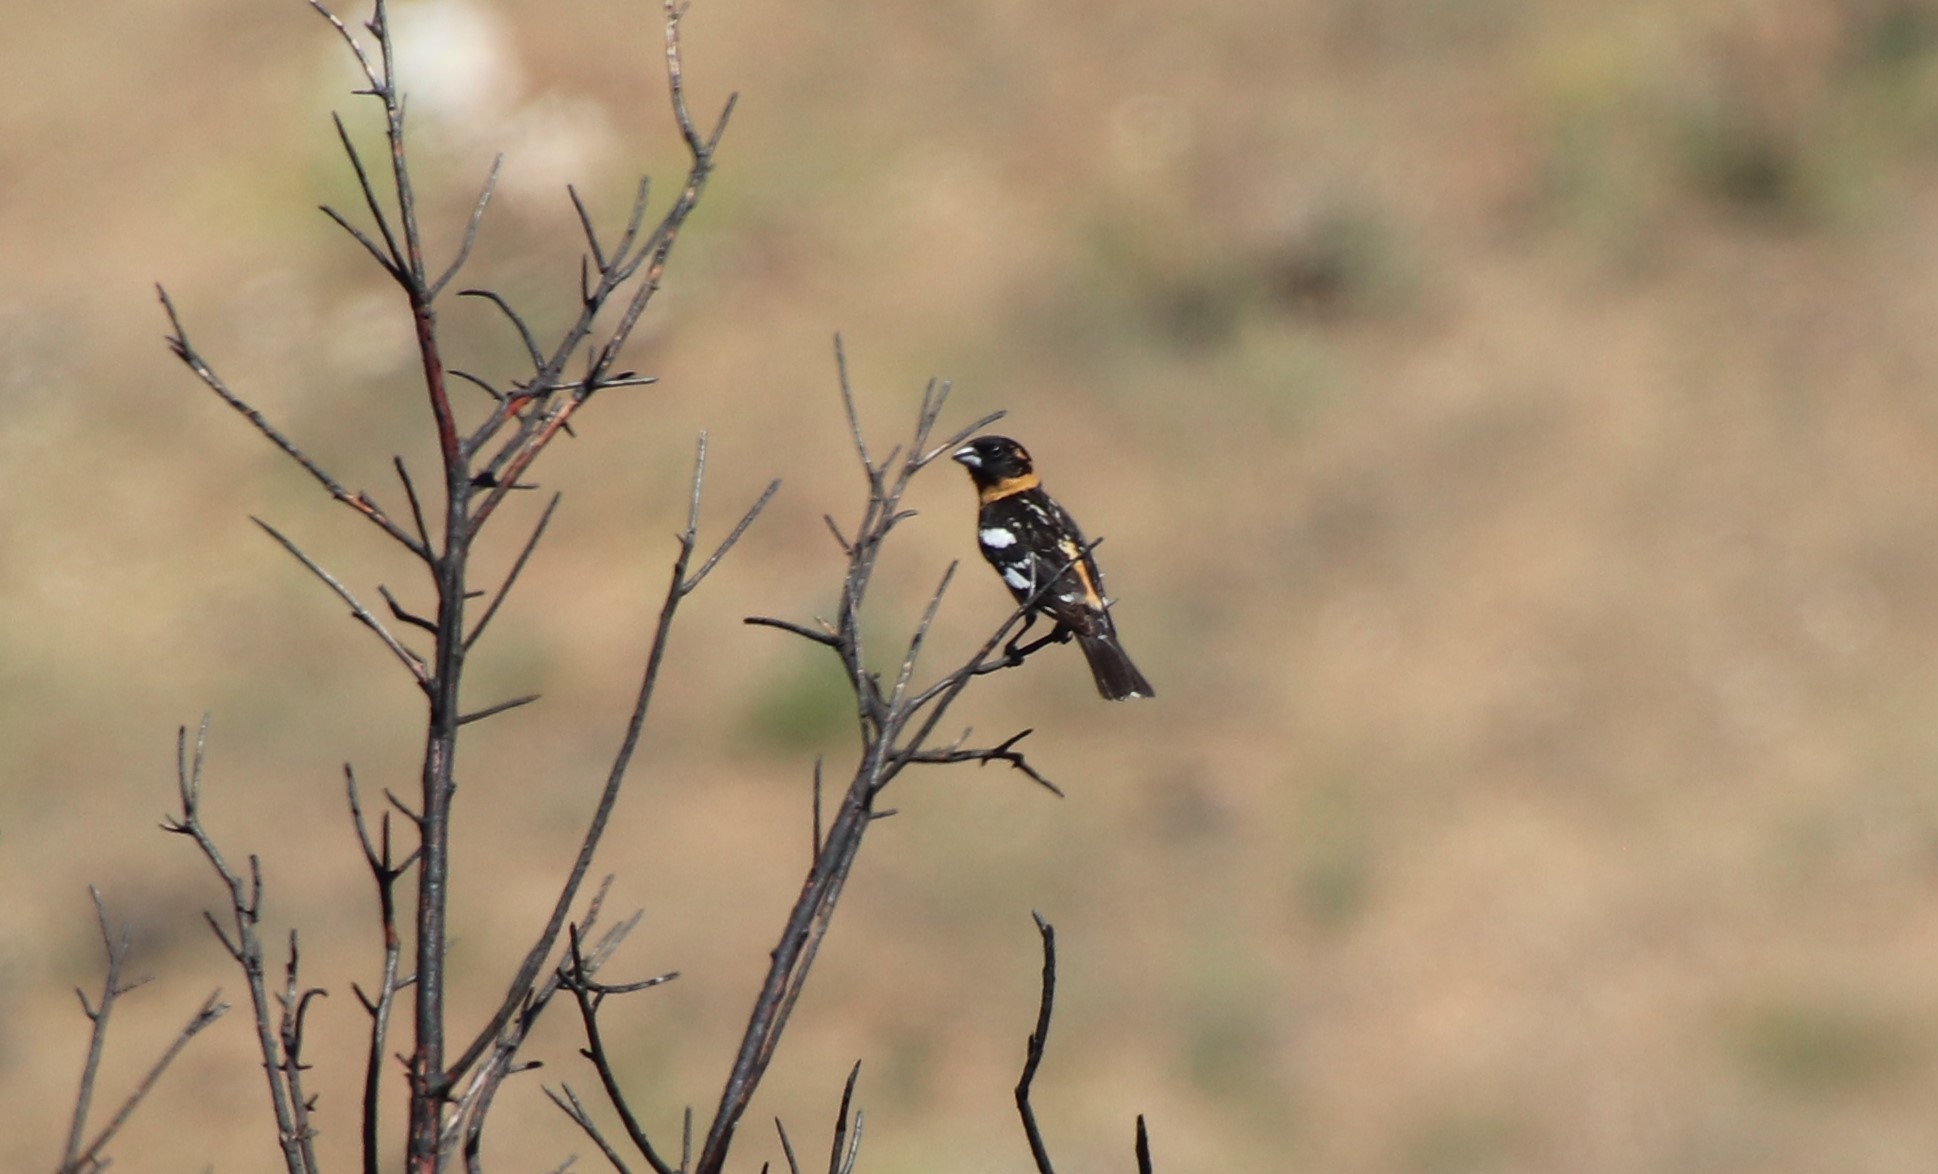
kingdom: Animalia
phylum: Chordata
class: Aves
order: Passeriformes
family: Cardinalidae
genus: Pheucticus
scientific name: Pheucticus melanocephalus
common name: Black-headed grosbeak
